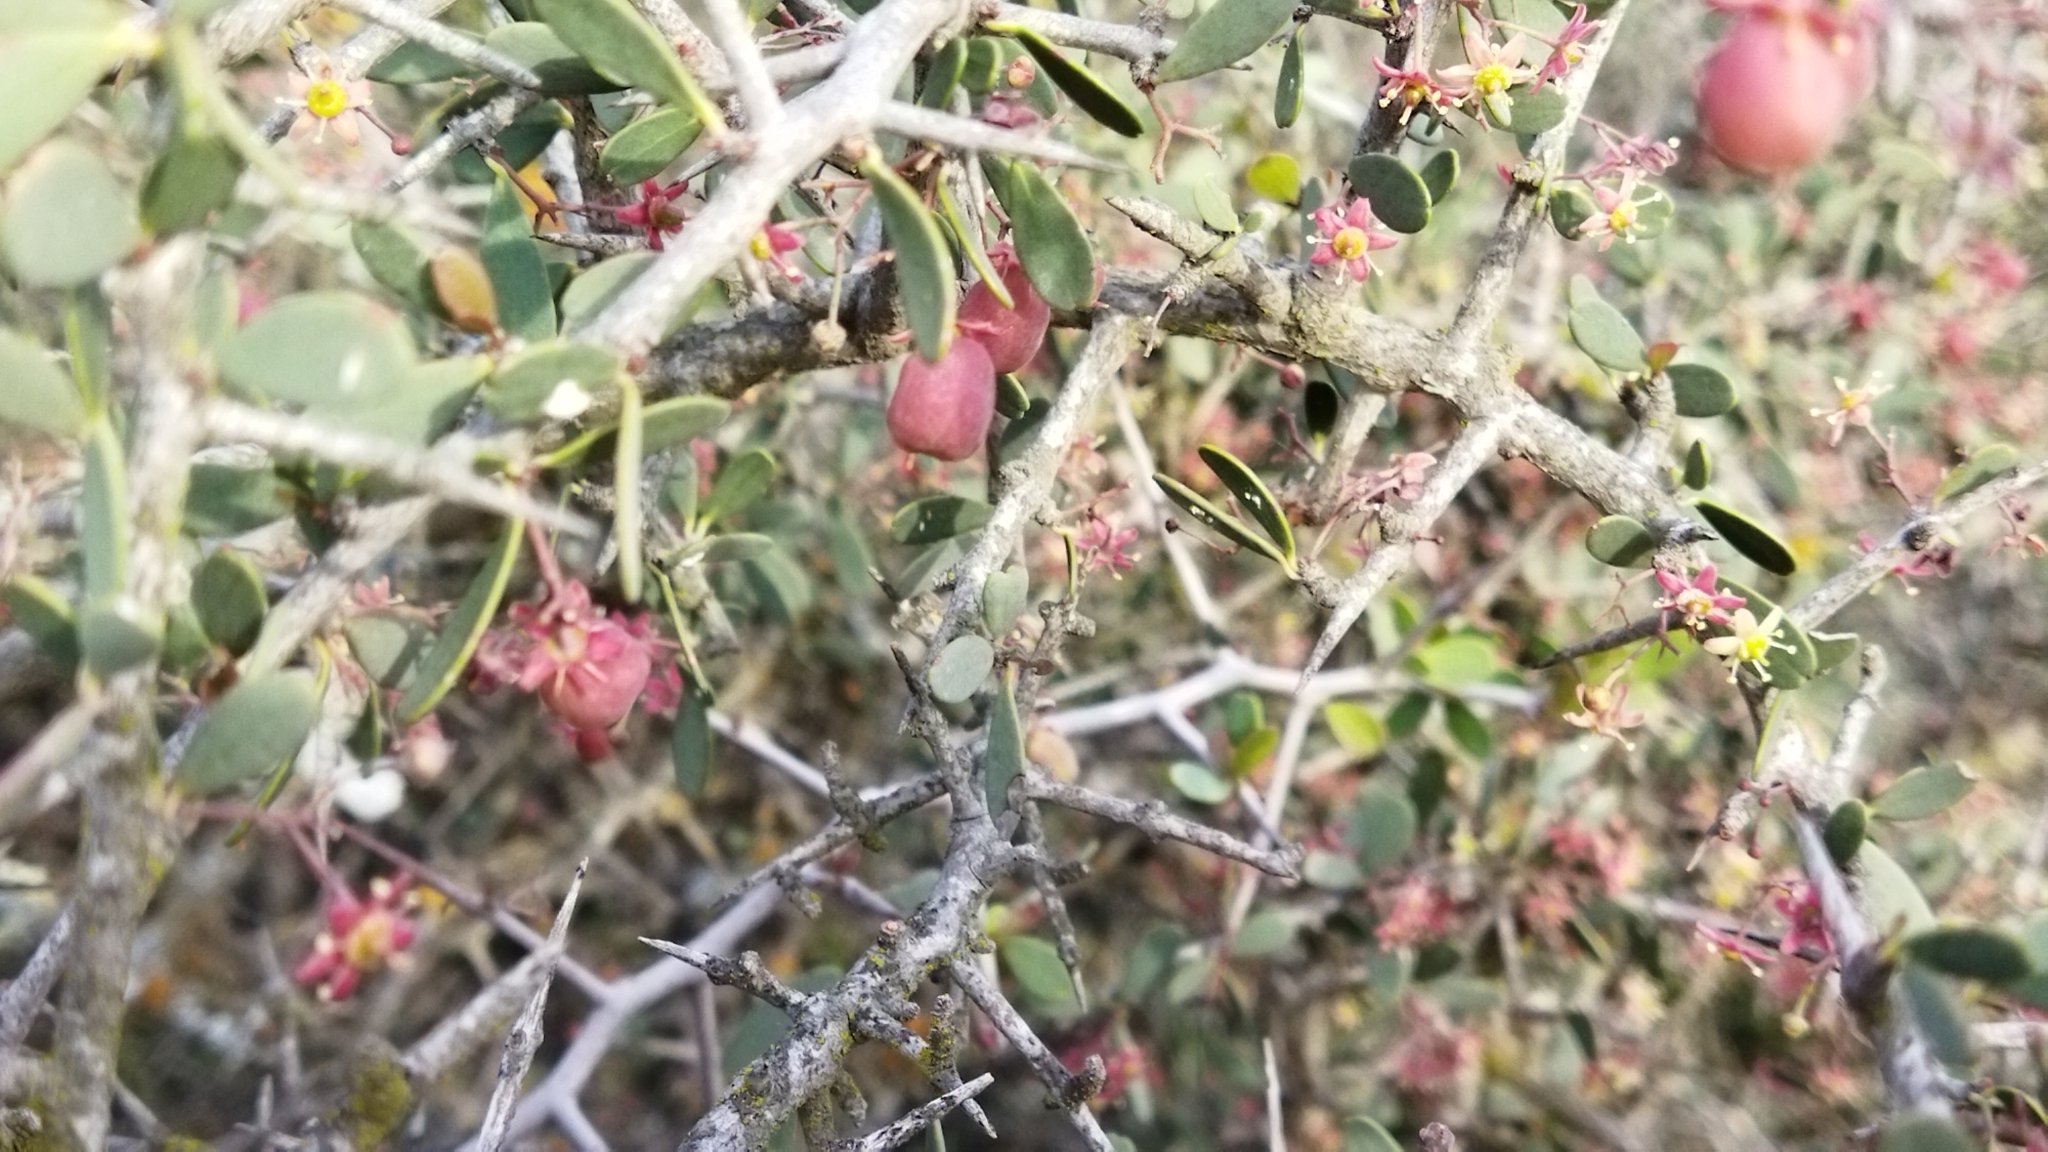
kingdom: Plantae
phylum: Tracheophyta
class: Magnoliopsida
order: Celastrales
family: Celastraceae
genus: Gloveria
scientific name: Gloveria integrifolia
